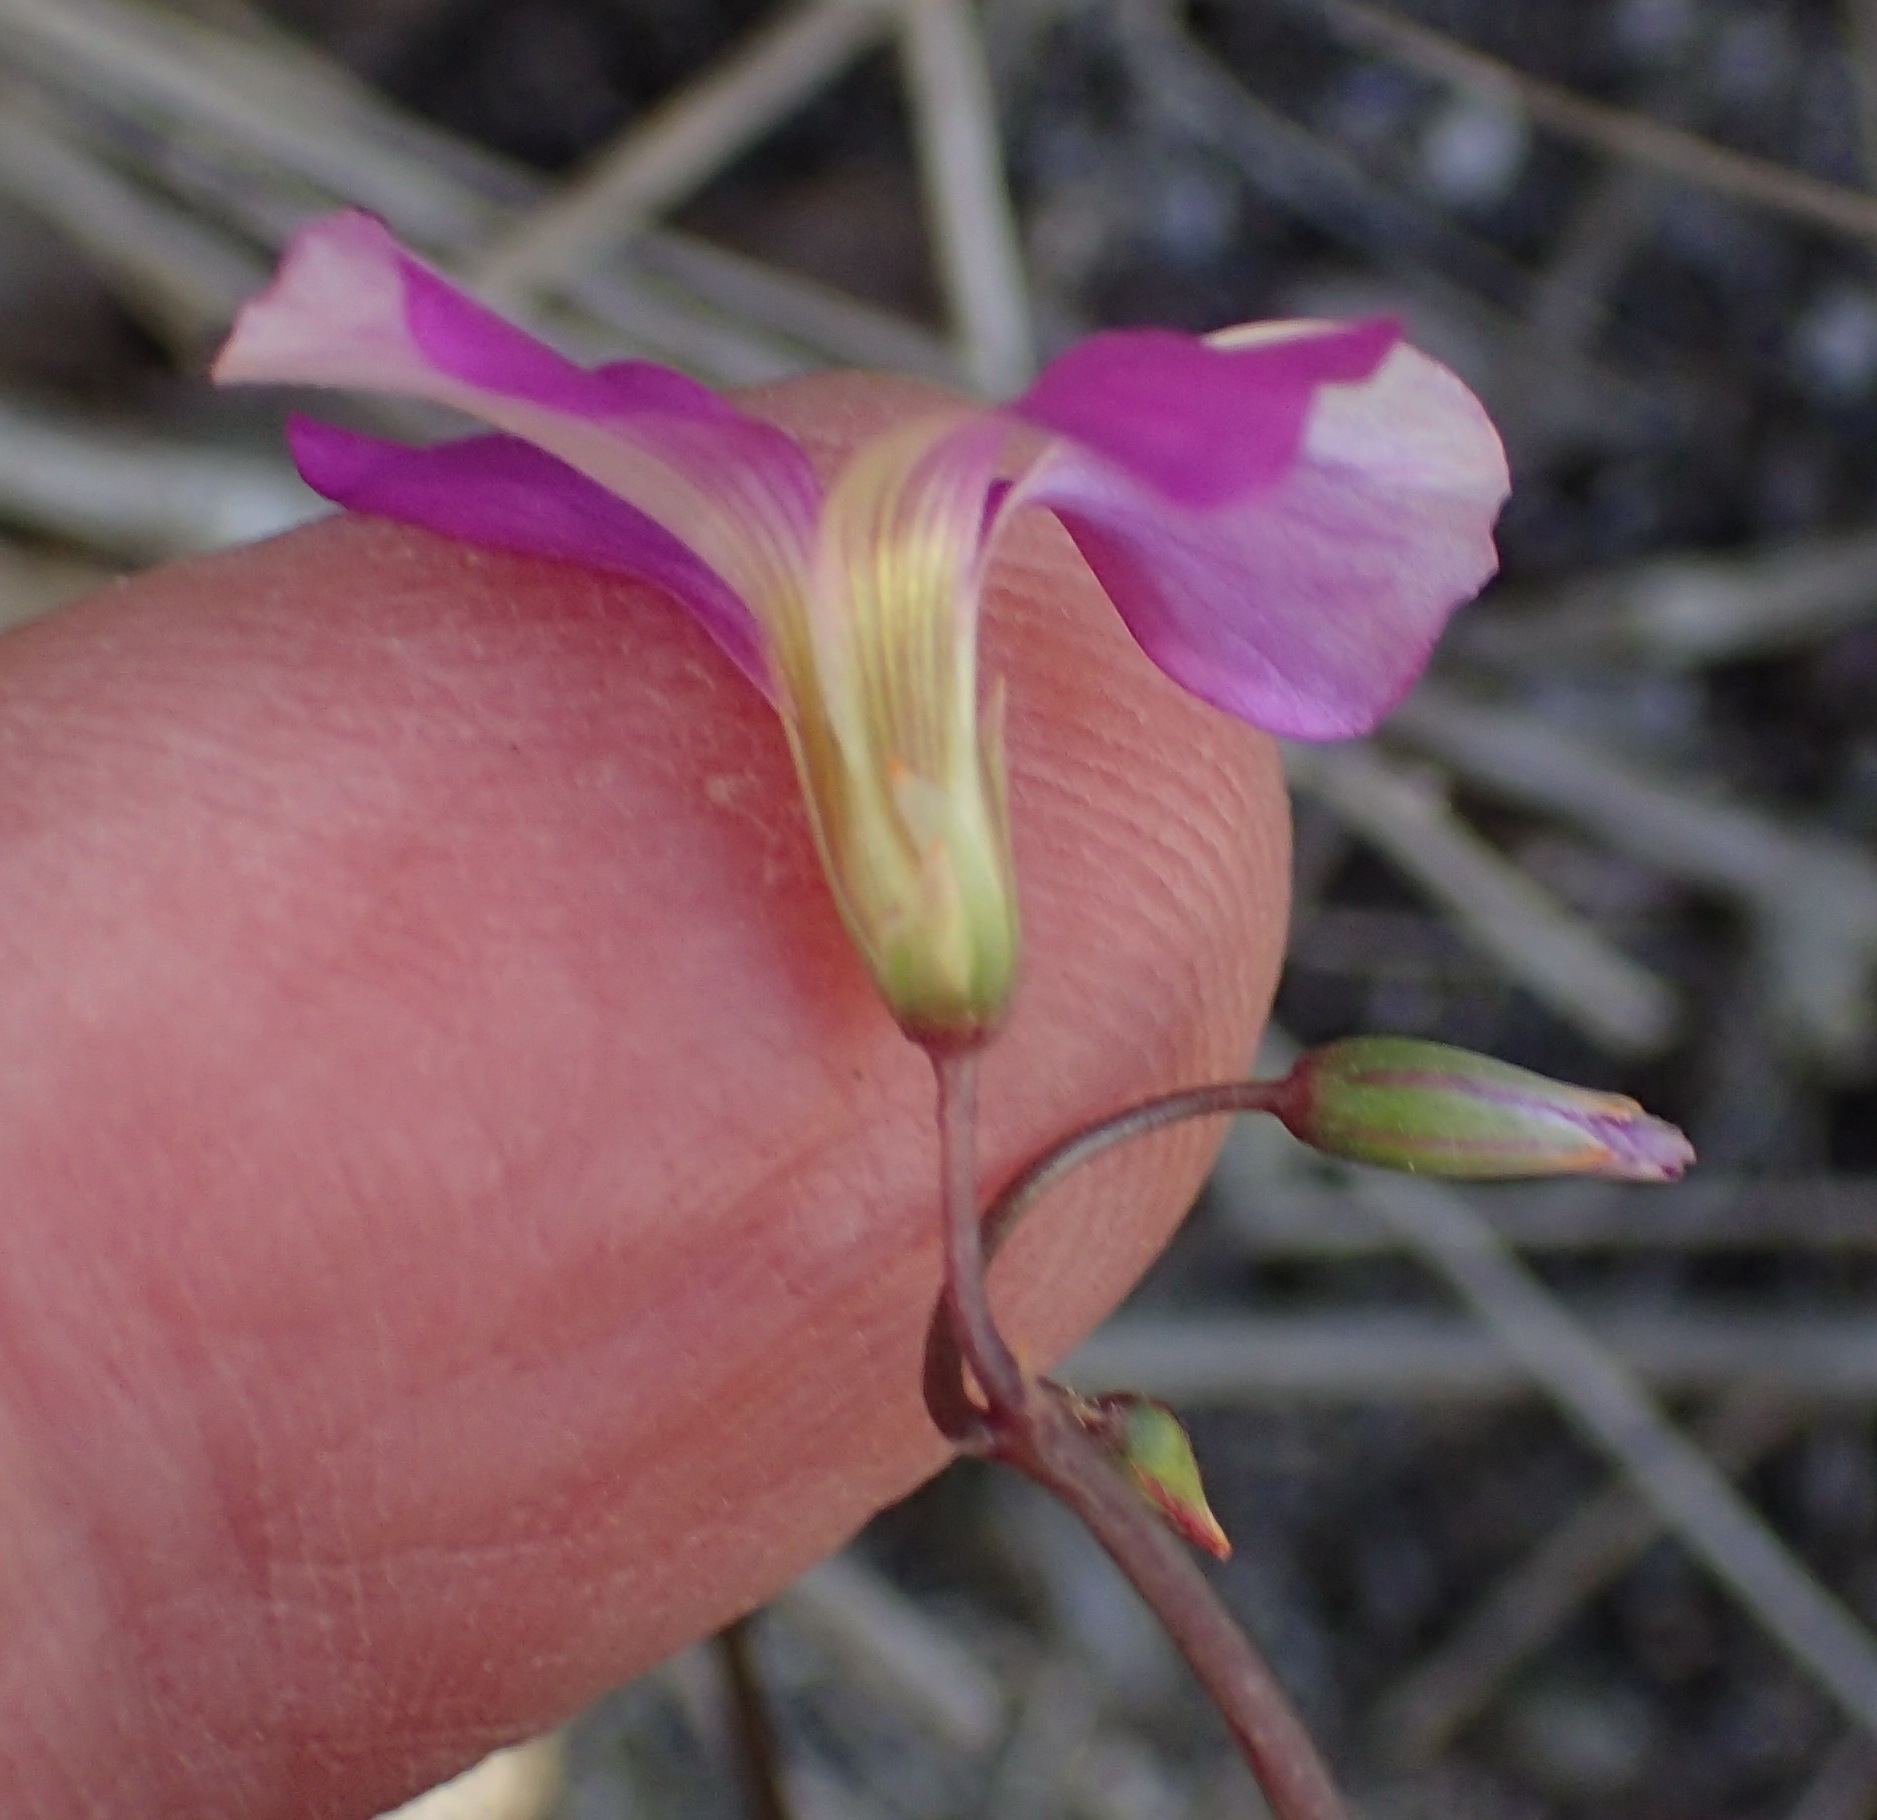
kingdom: Plantae
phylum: Tracheophyta
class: Magnoliopsida
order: Oxalidales
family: Oxalidaceae
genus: Oxalis
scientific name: Oxalis stellata
